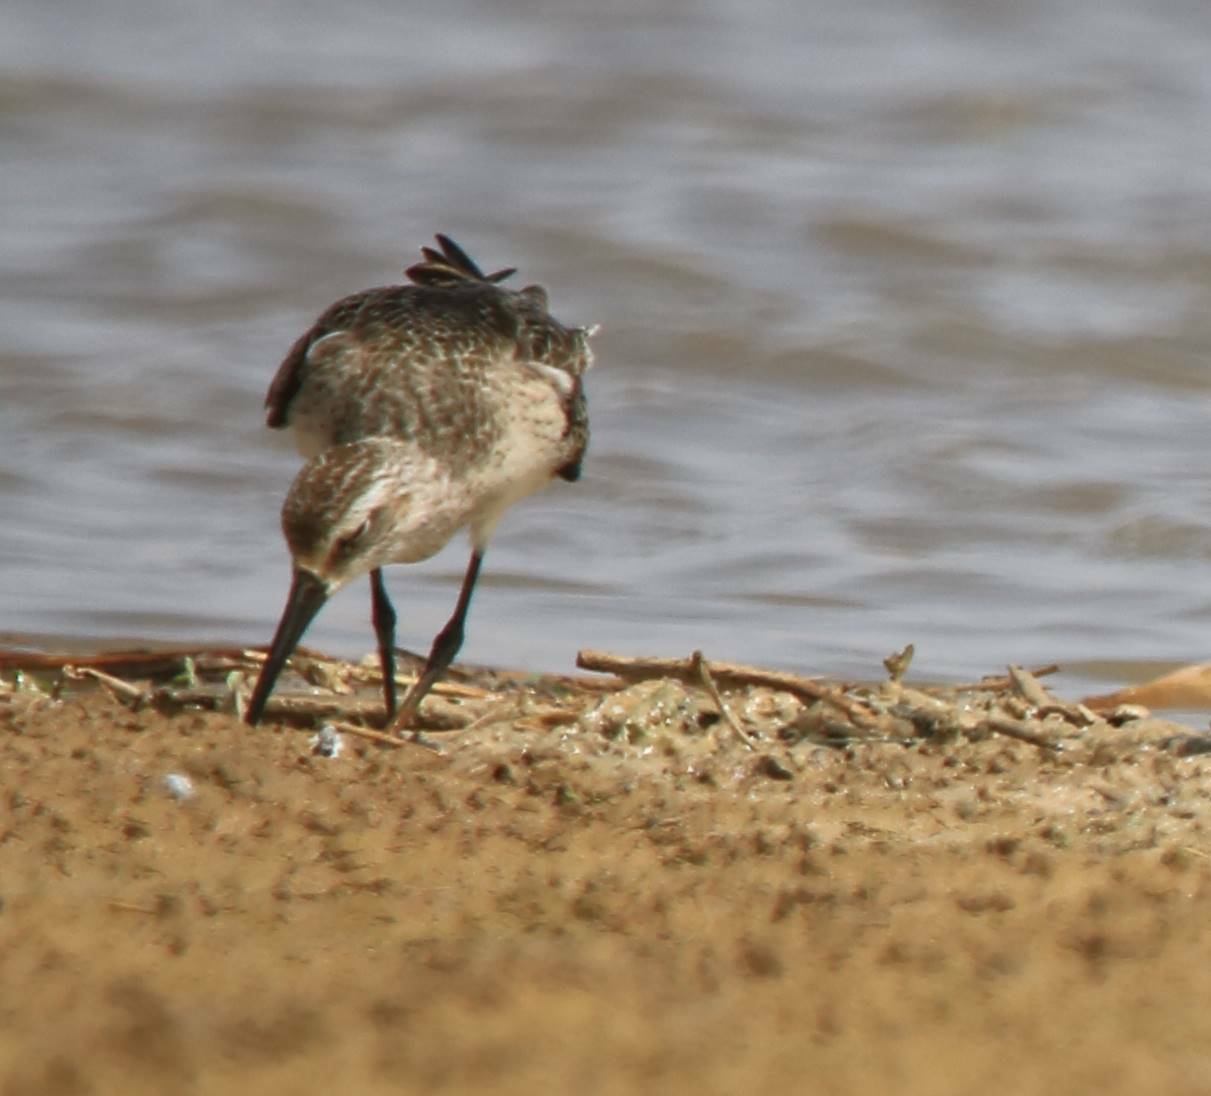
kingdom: Animalia
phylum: Chordata
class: Aves
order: Charadriiformes
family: Scolopacidae
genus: Calidris
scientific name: Calidris ferruginea
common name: Curlew sandpiper
